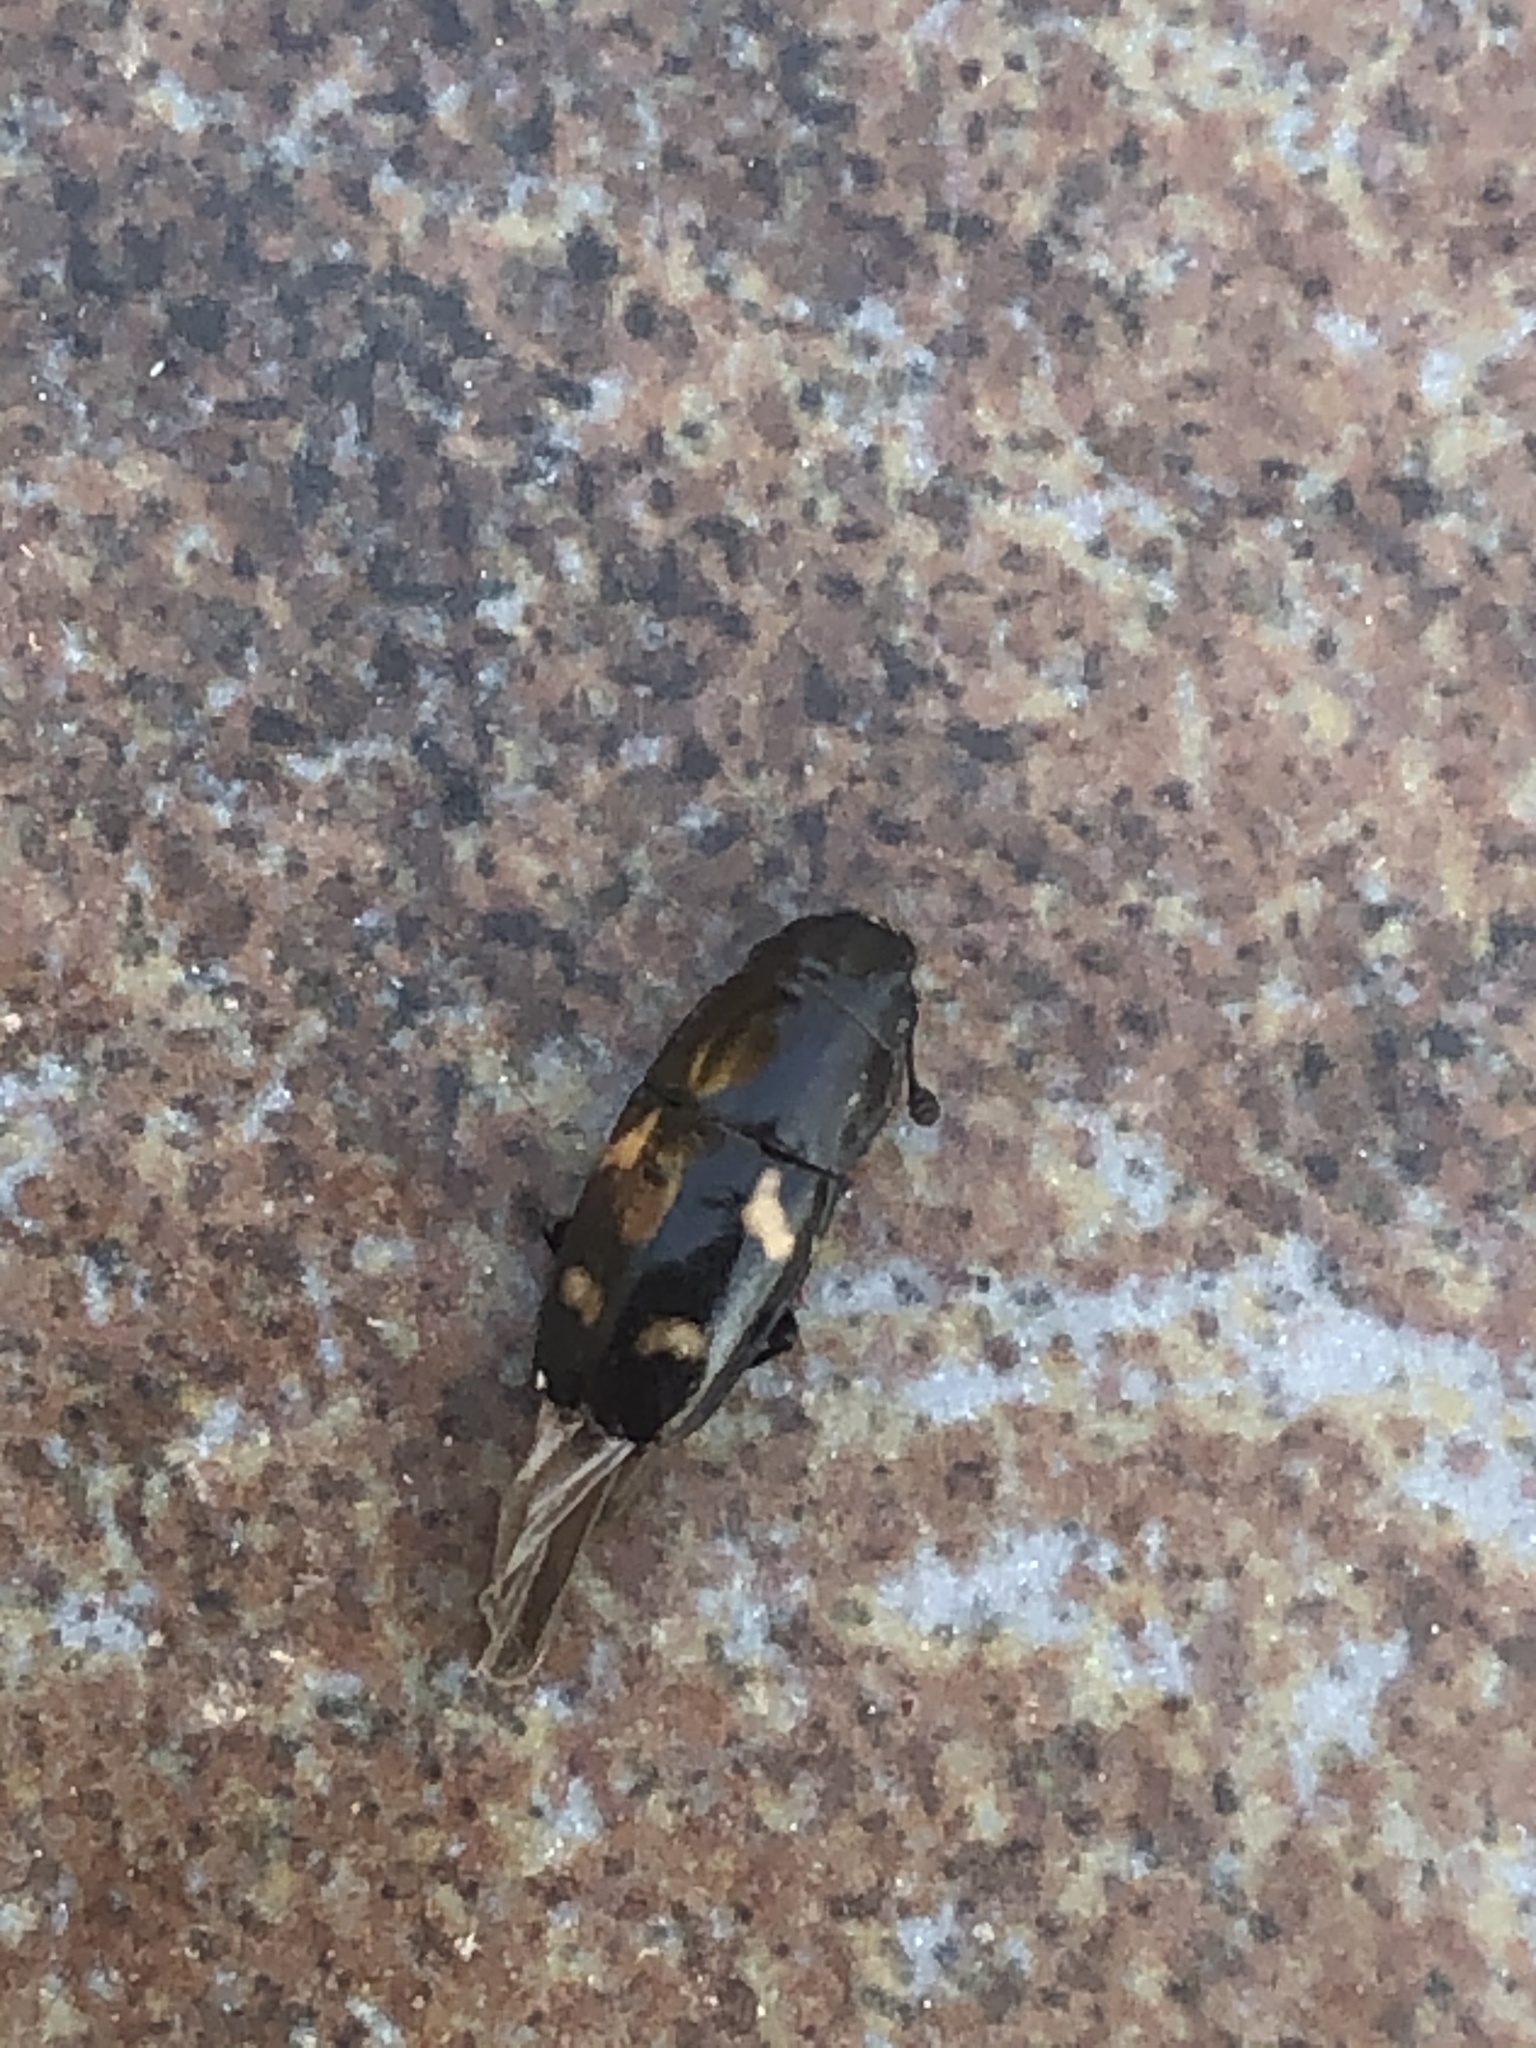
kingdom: Animalia
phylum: Arthropoda
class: Insecta
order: Coleoptera
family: Nitidulidae
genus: Glischrochilus
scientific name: Glischrochilus quadrisignatus
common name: Picnic beetle
